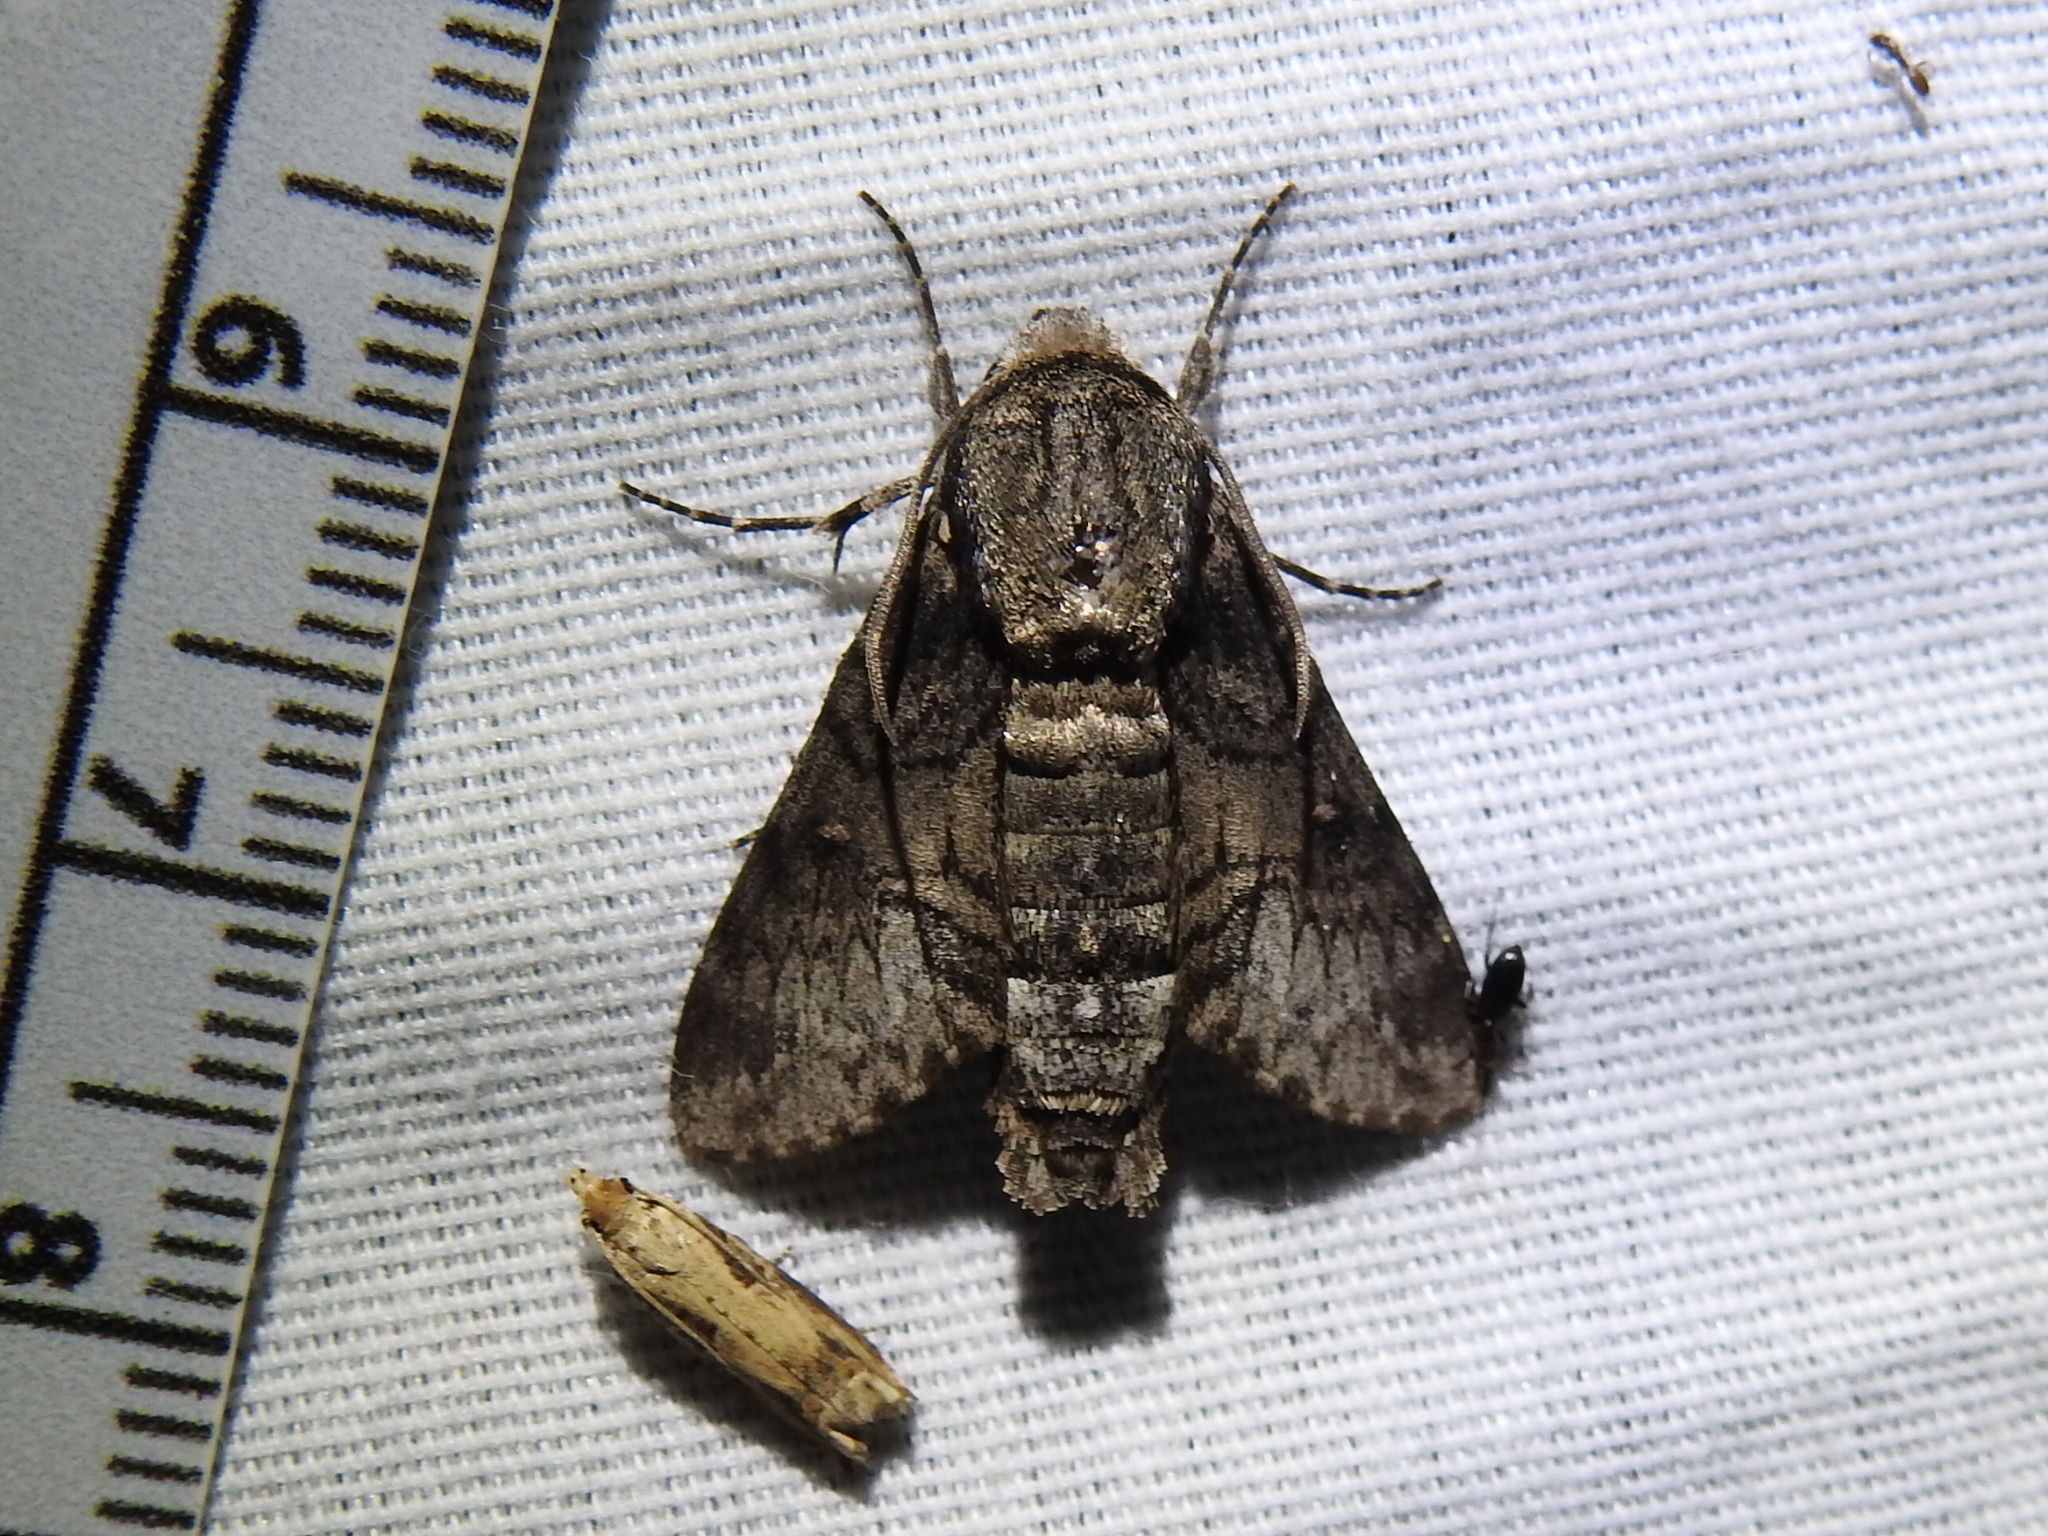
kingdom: Animalia
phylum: Arthropoda
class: Insecta
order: Lepidoptera
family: Sphingidae
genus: Cautethia
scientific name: Cautethia spuria
